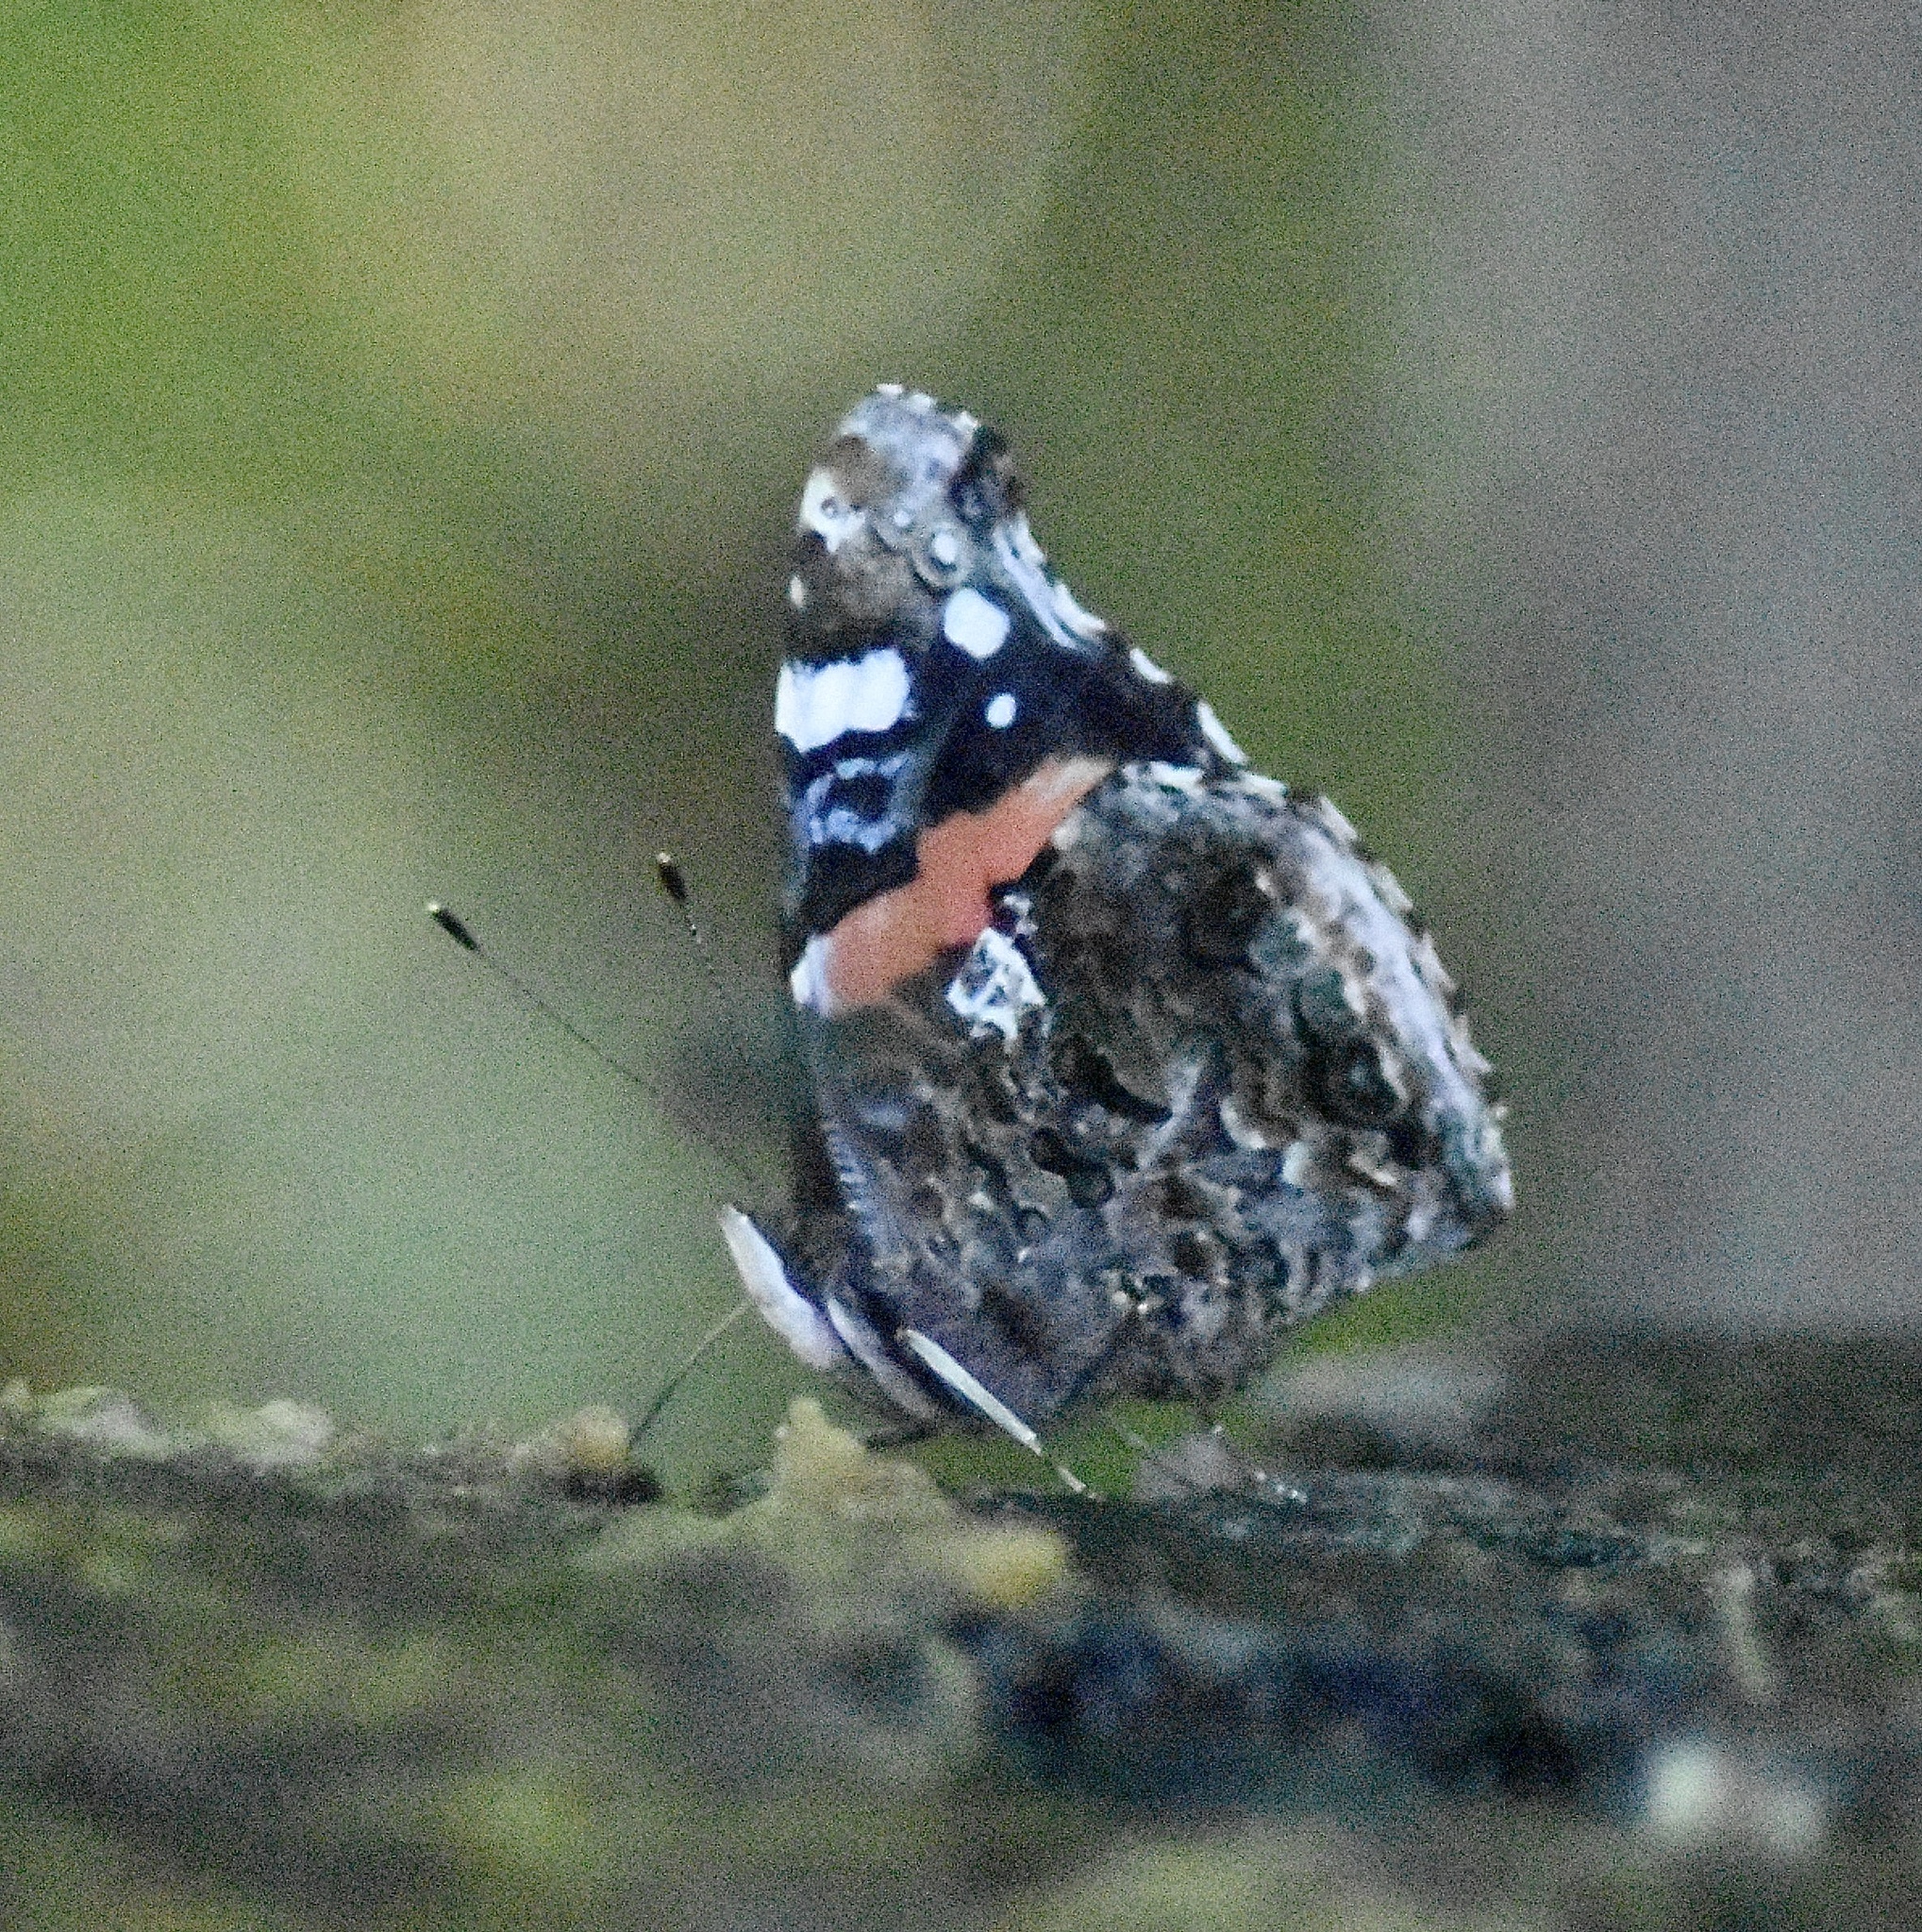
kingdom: Animalia
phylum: Arthropoda
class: Insecta
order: Lepidoptera
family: Nymphalidae
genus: Vanessa
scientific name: Vanessa atalanta
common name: Red admiral
